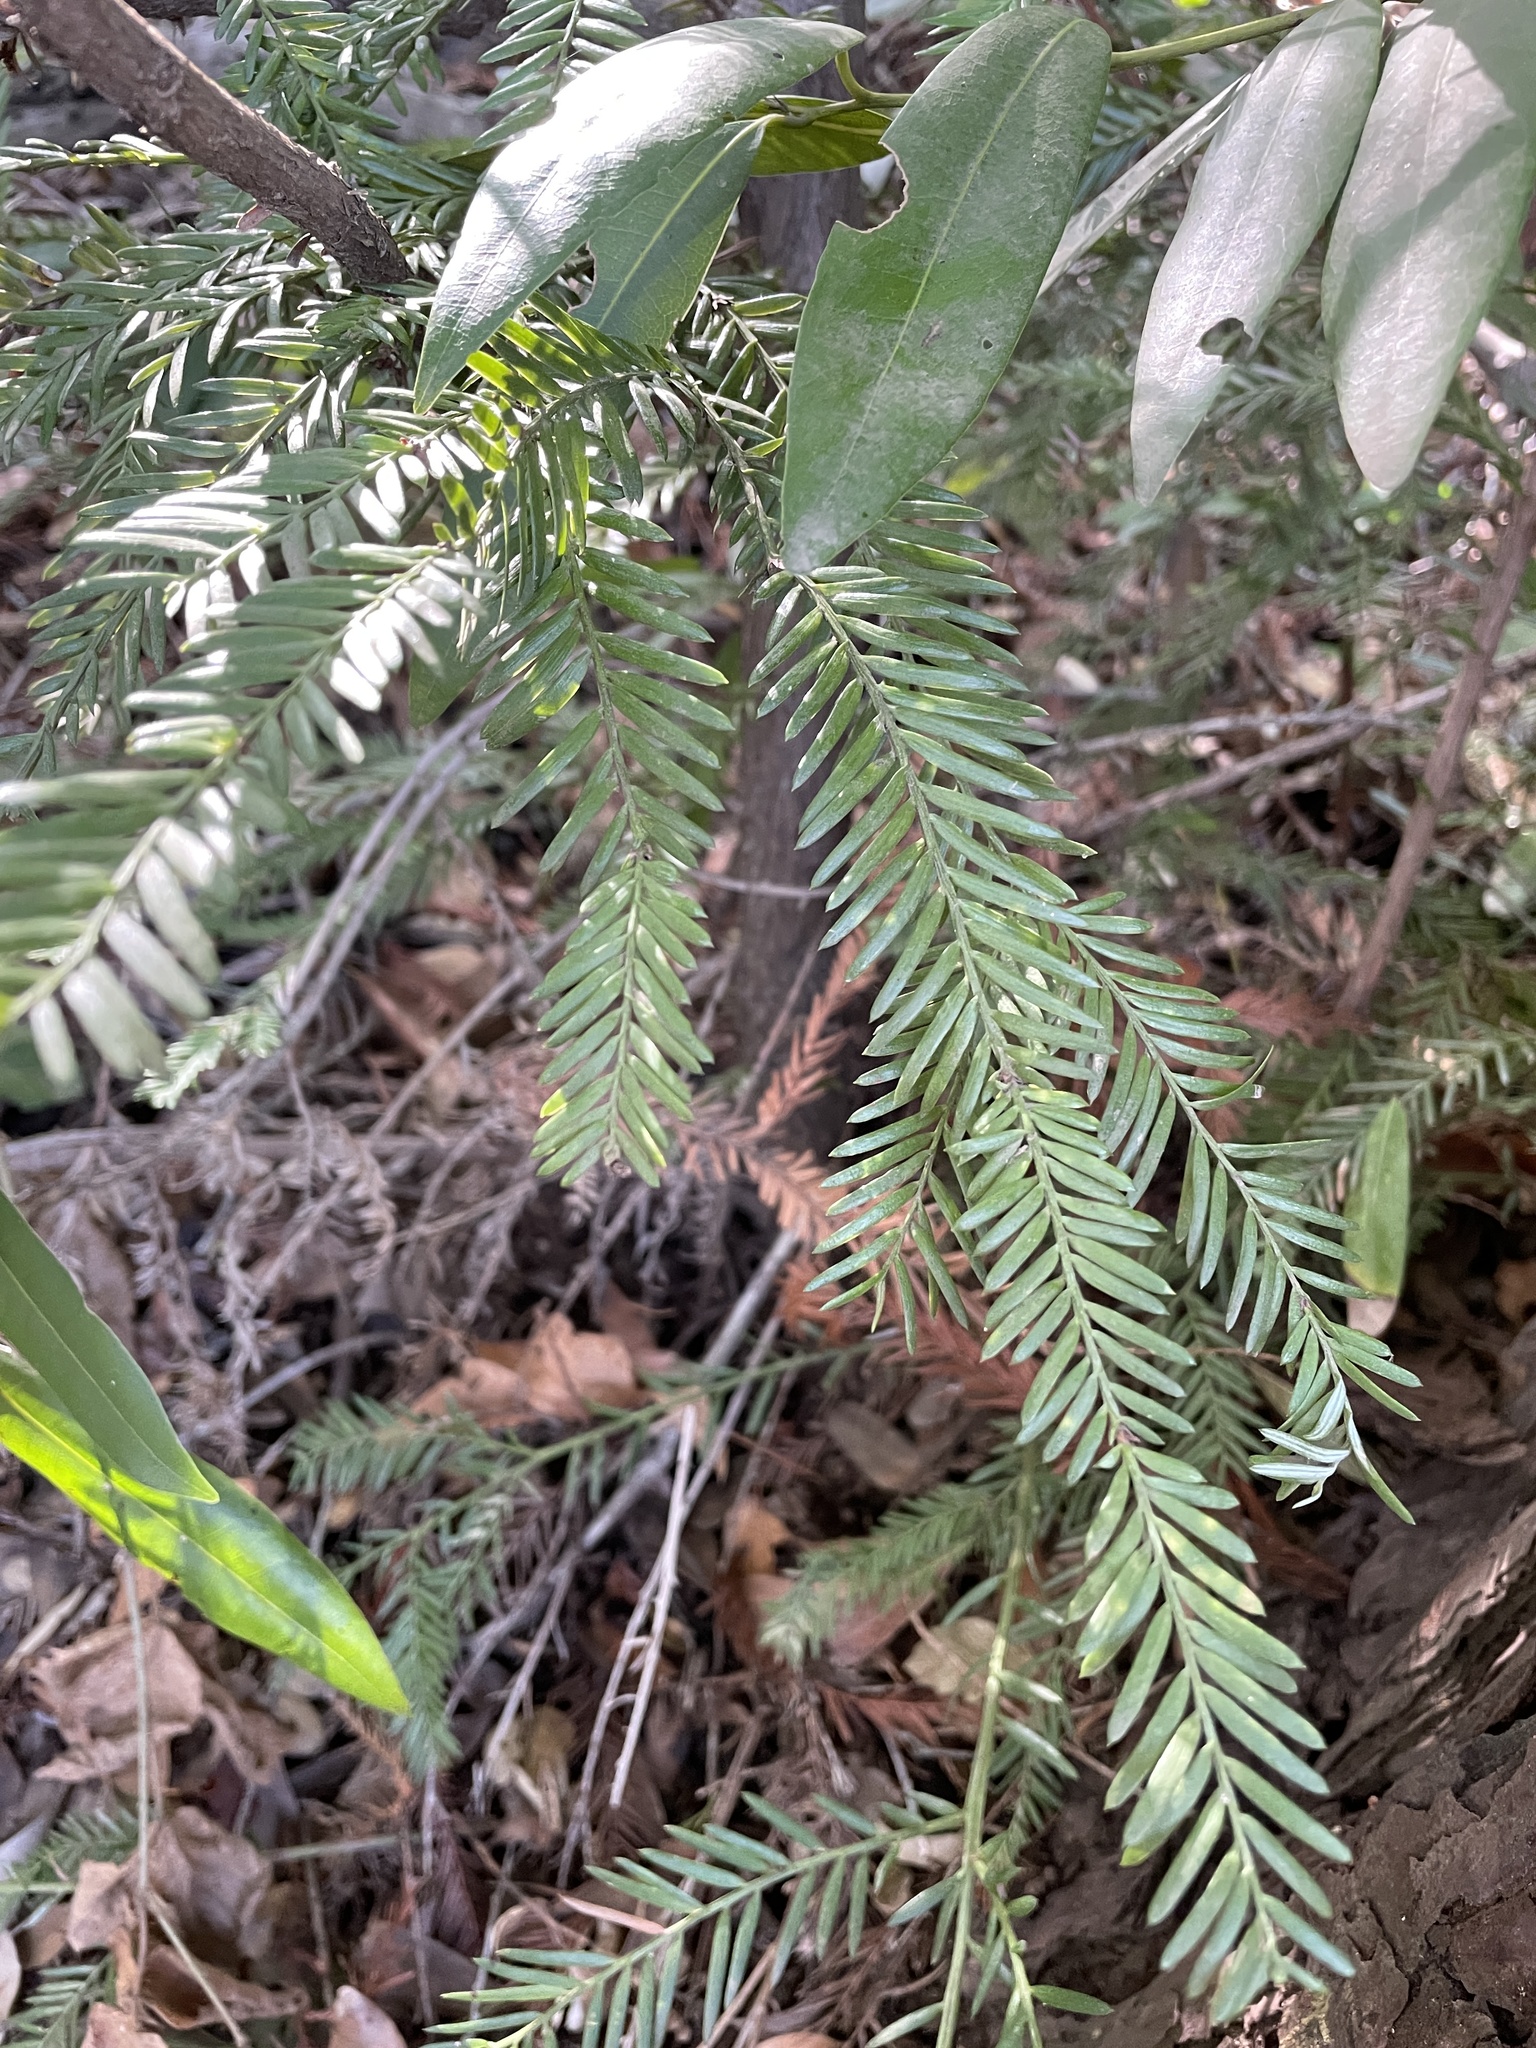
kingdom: Plantae
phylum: Tracheophyta
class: Pinopsida
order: Pinales
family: Cupressaceae
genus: Sequoia
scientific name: Sequoia sempervirens
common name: Coast redwood
